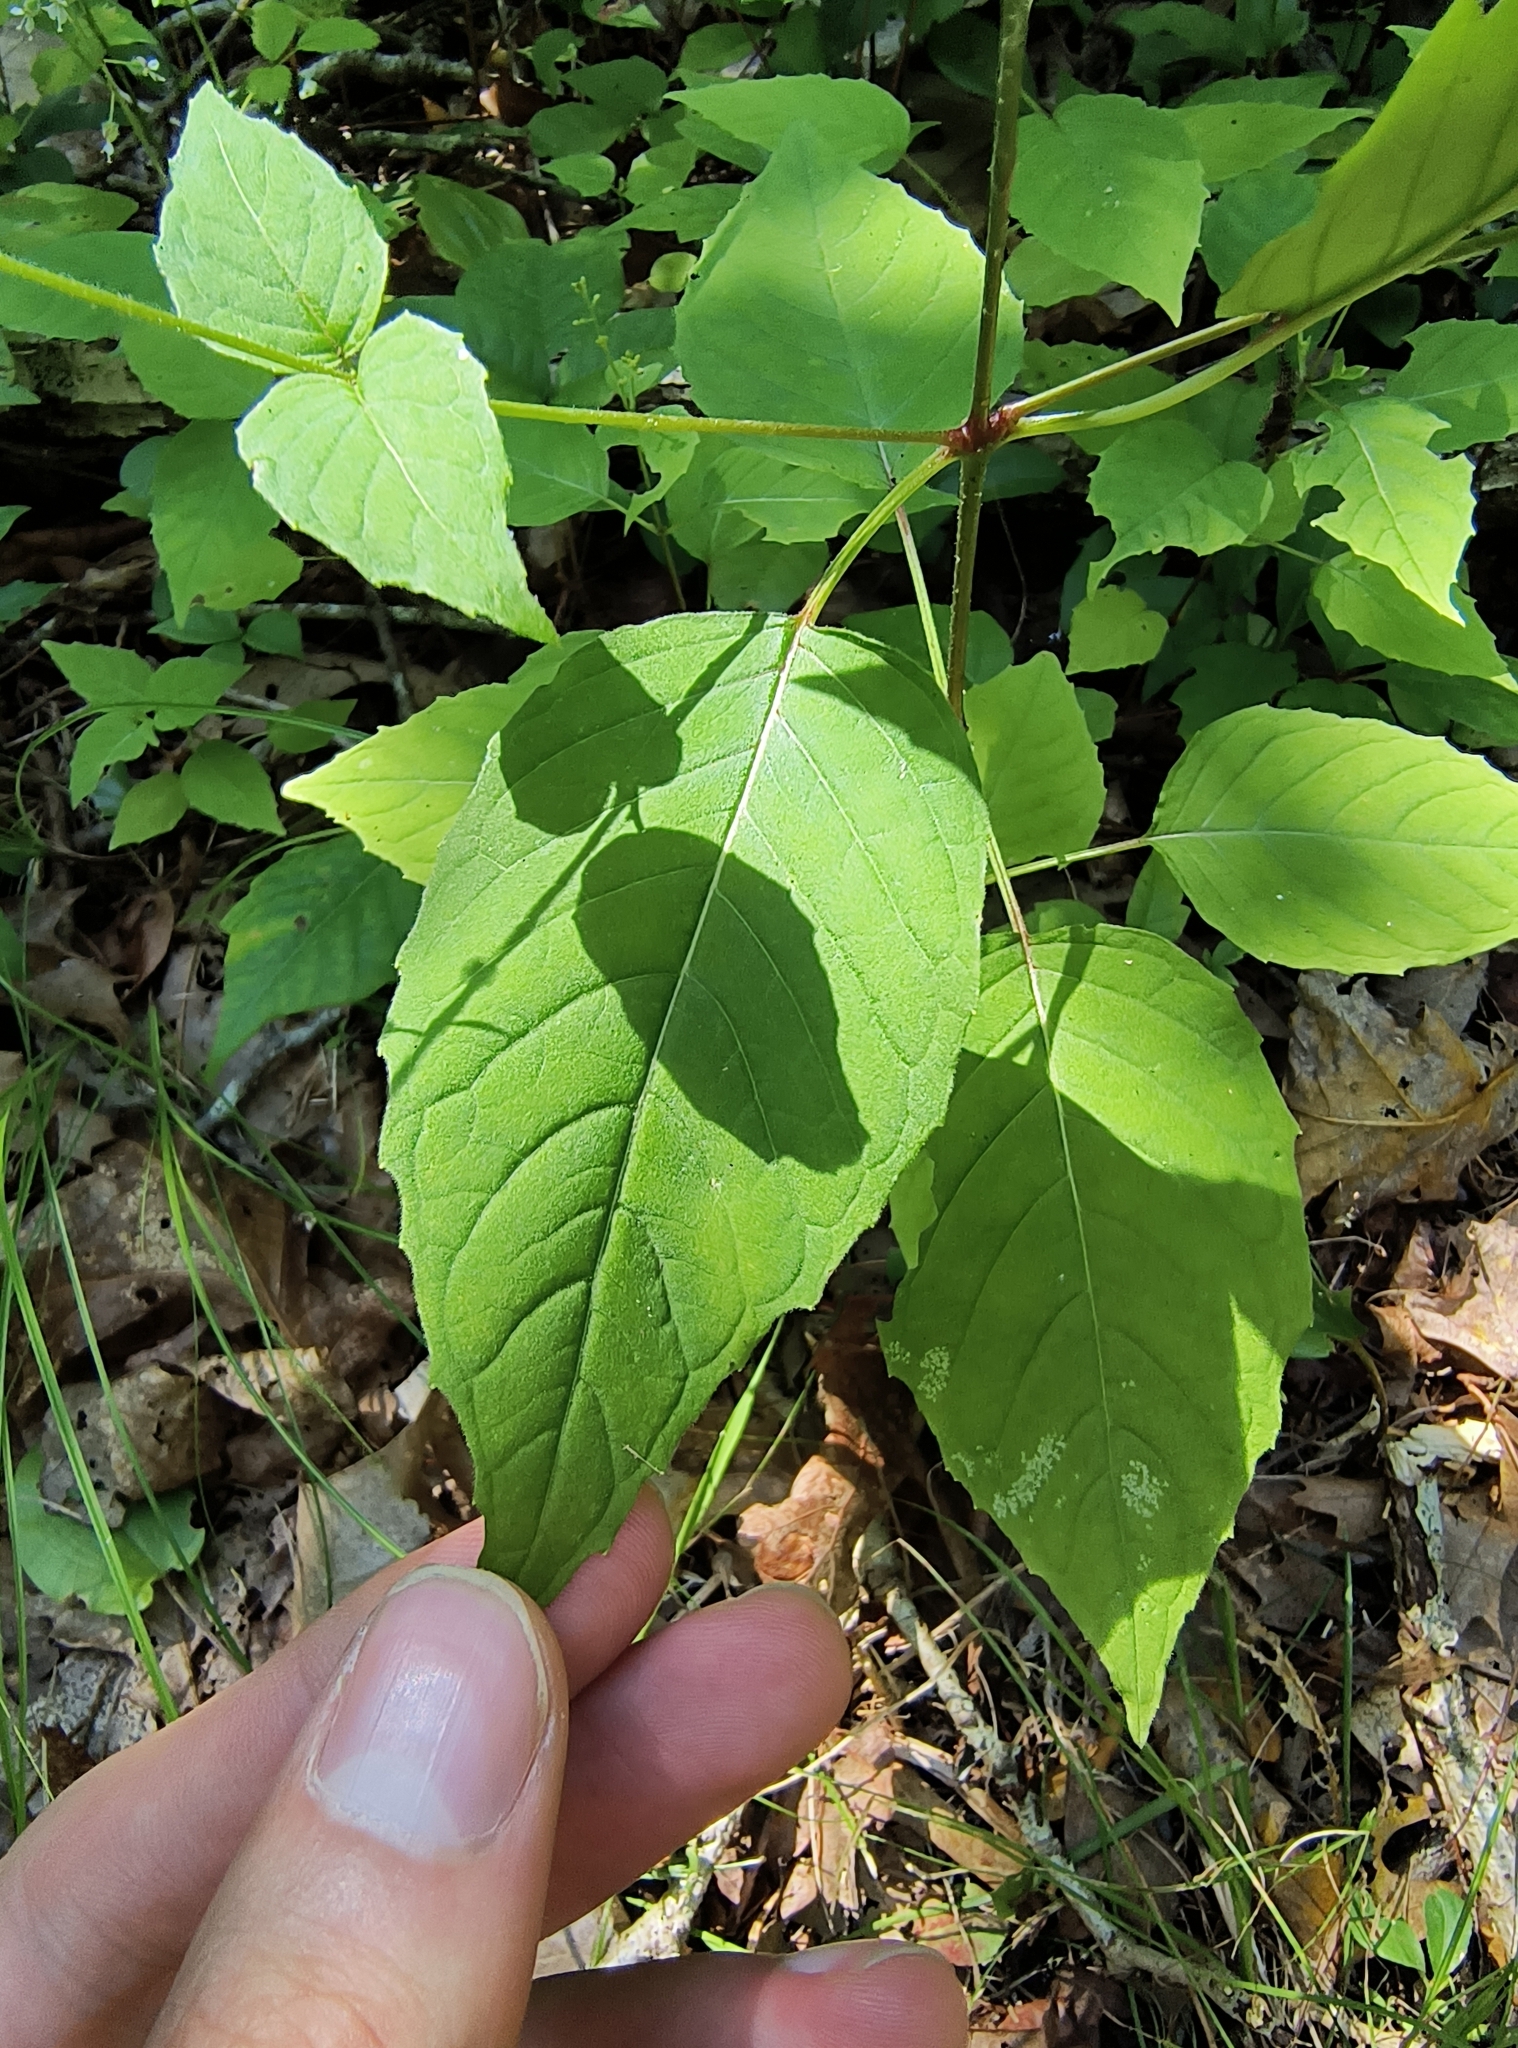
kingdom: Plantae
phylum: Tracheophyta
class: Magnoliopsida
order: Myrtales
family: Onagraceae
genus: Circaea
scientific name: Circaea canadensis
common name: Broad-leaved enchanter's nightshade
